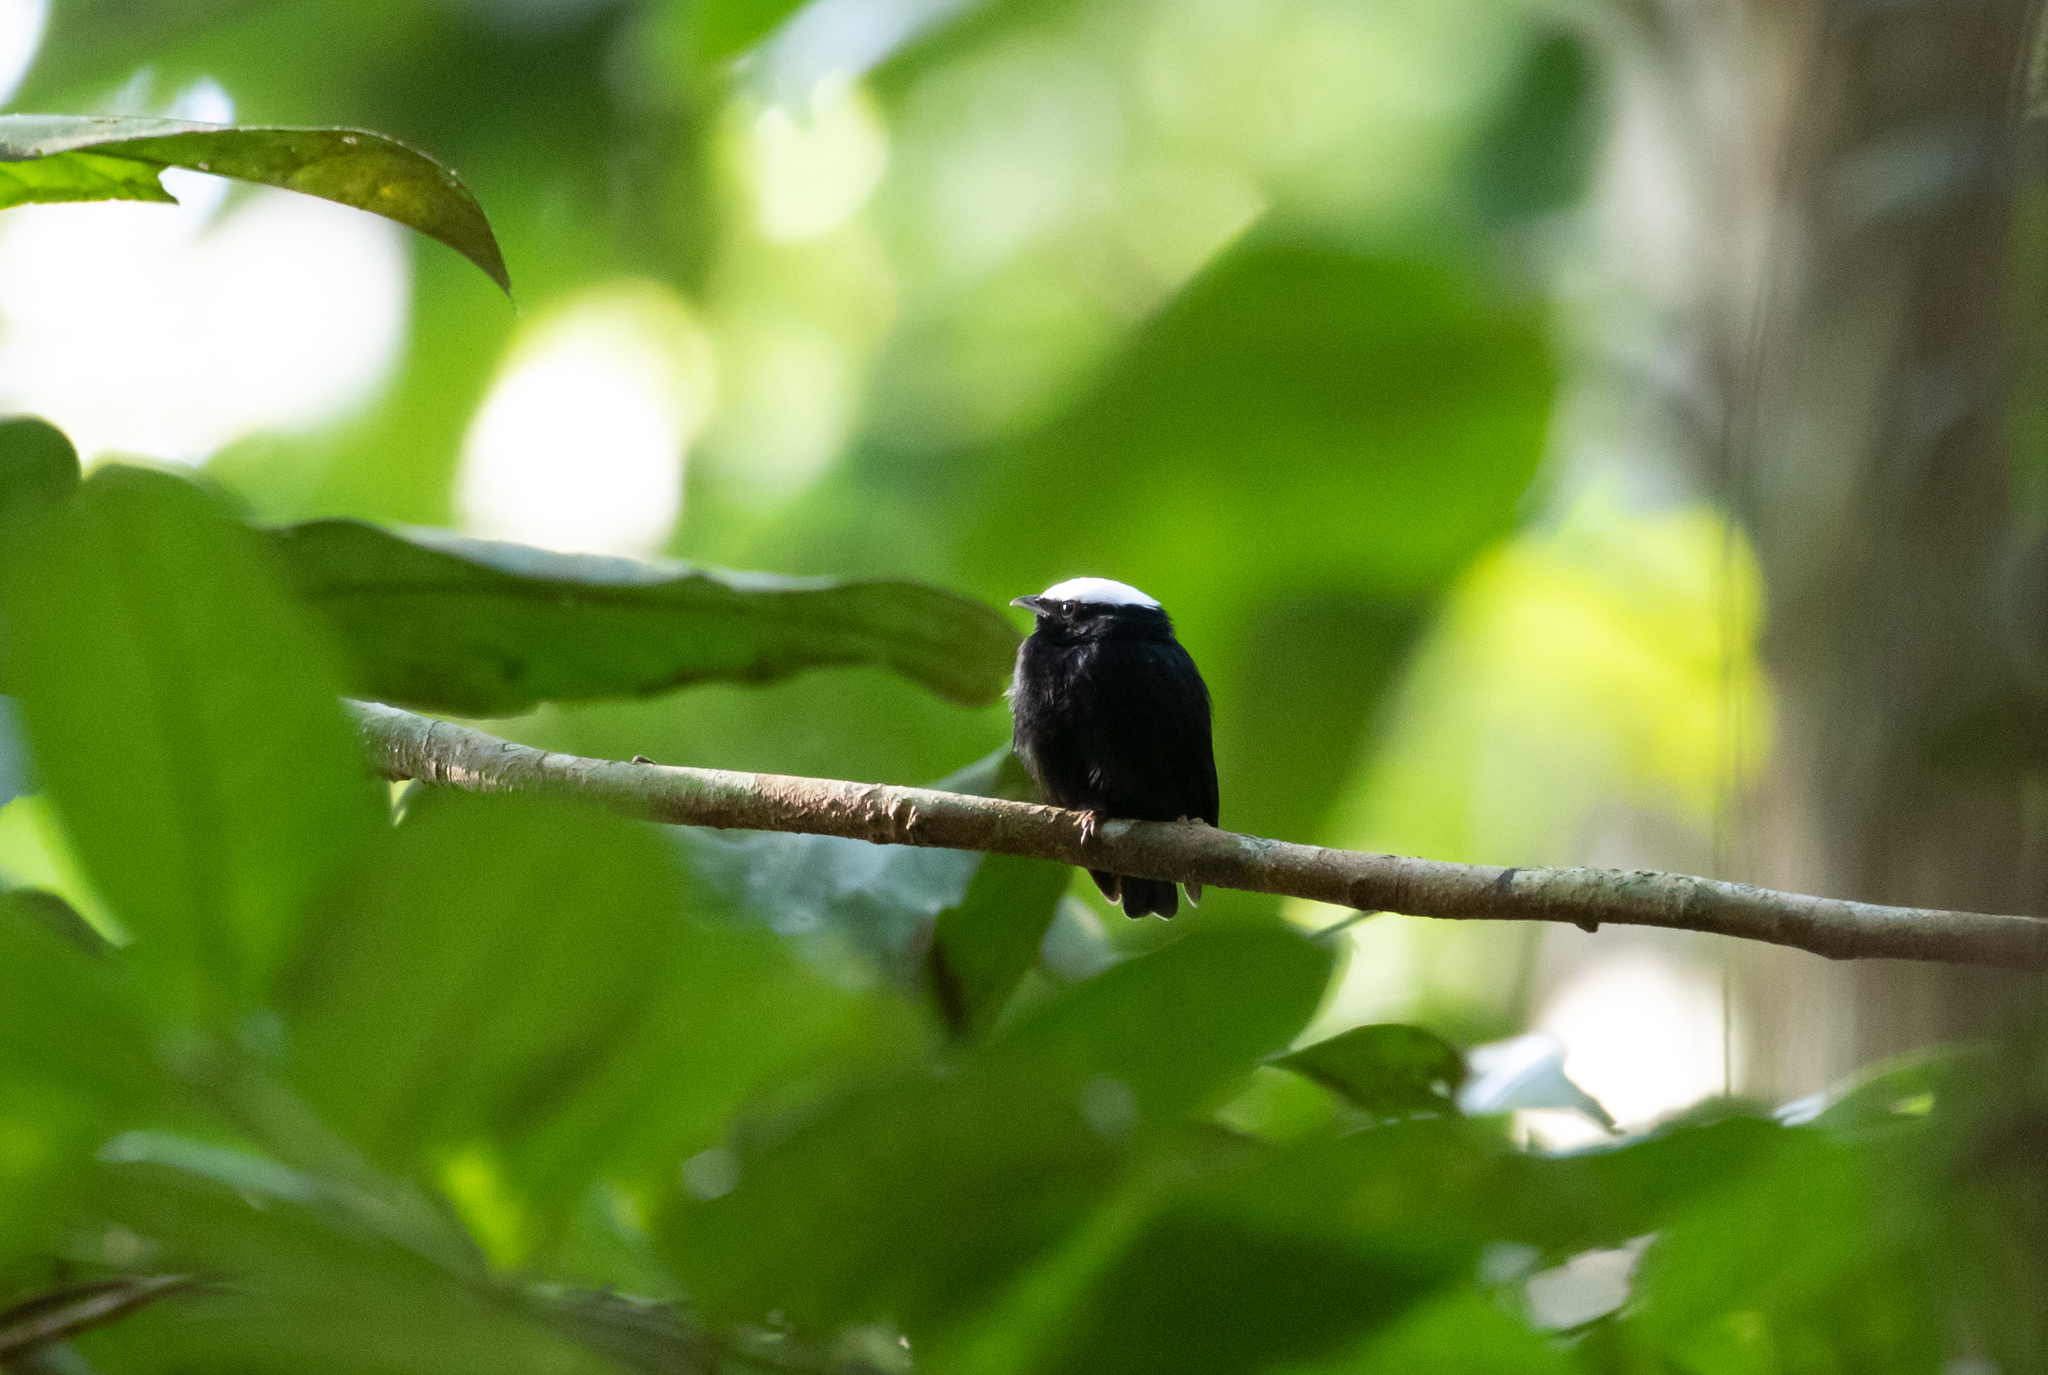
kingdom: Animalia
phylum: Chordata
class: Aves
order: Passeriformes
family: Pipridae
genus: Pipra
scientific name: Pipra pipra
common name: White-crowned manakin
